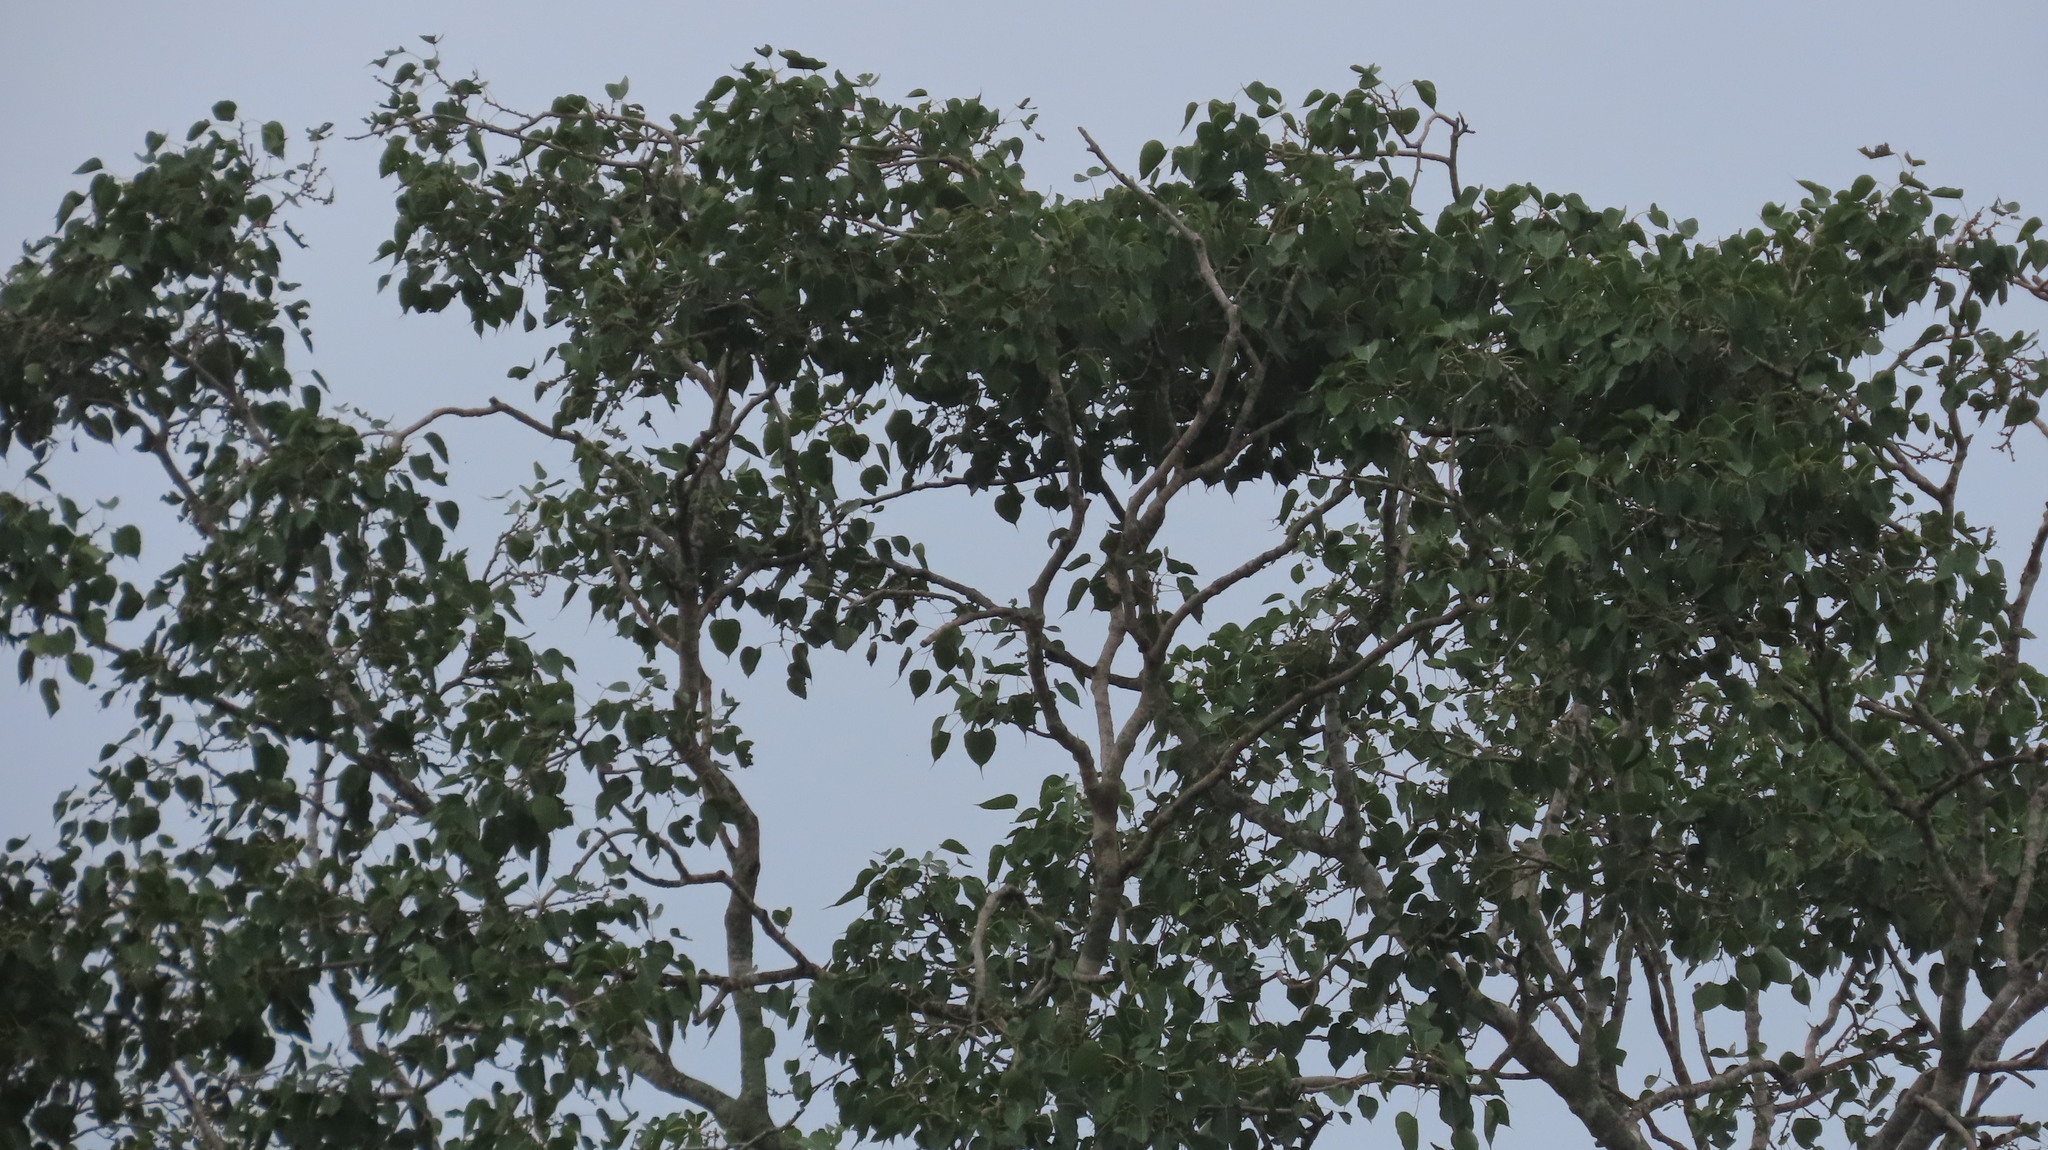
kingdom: Plantae
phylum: Tracheophyta
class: Magnoliopsida
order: Rosales
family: Moraceae
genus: Ficus
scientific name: Ficus religiosa
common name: Bodhi tree
